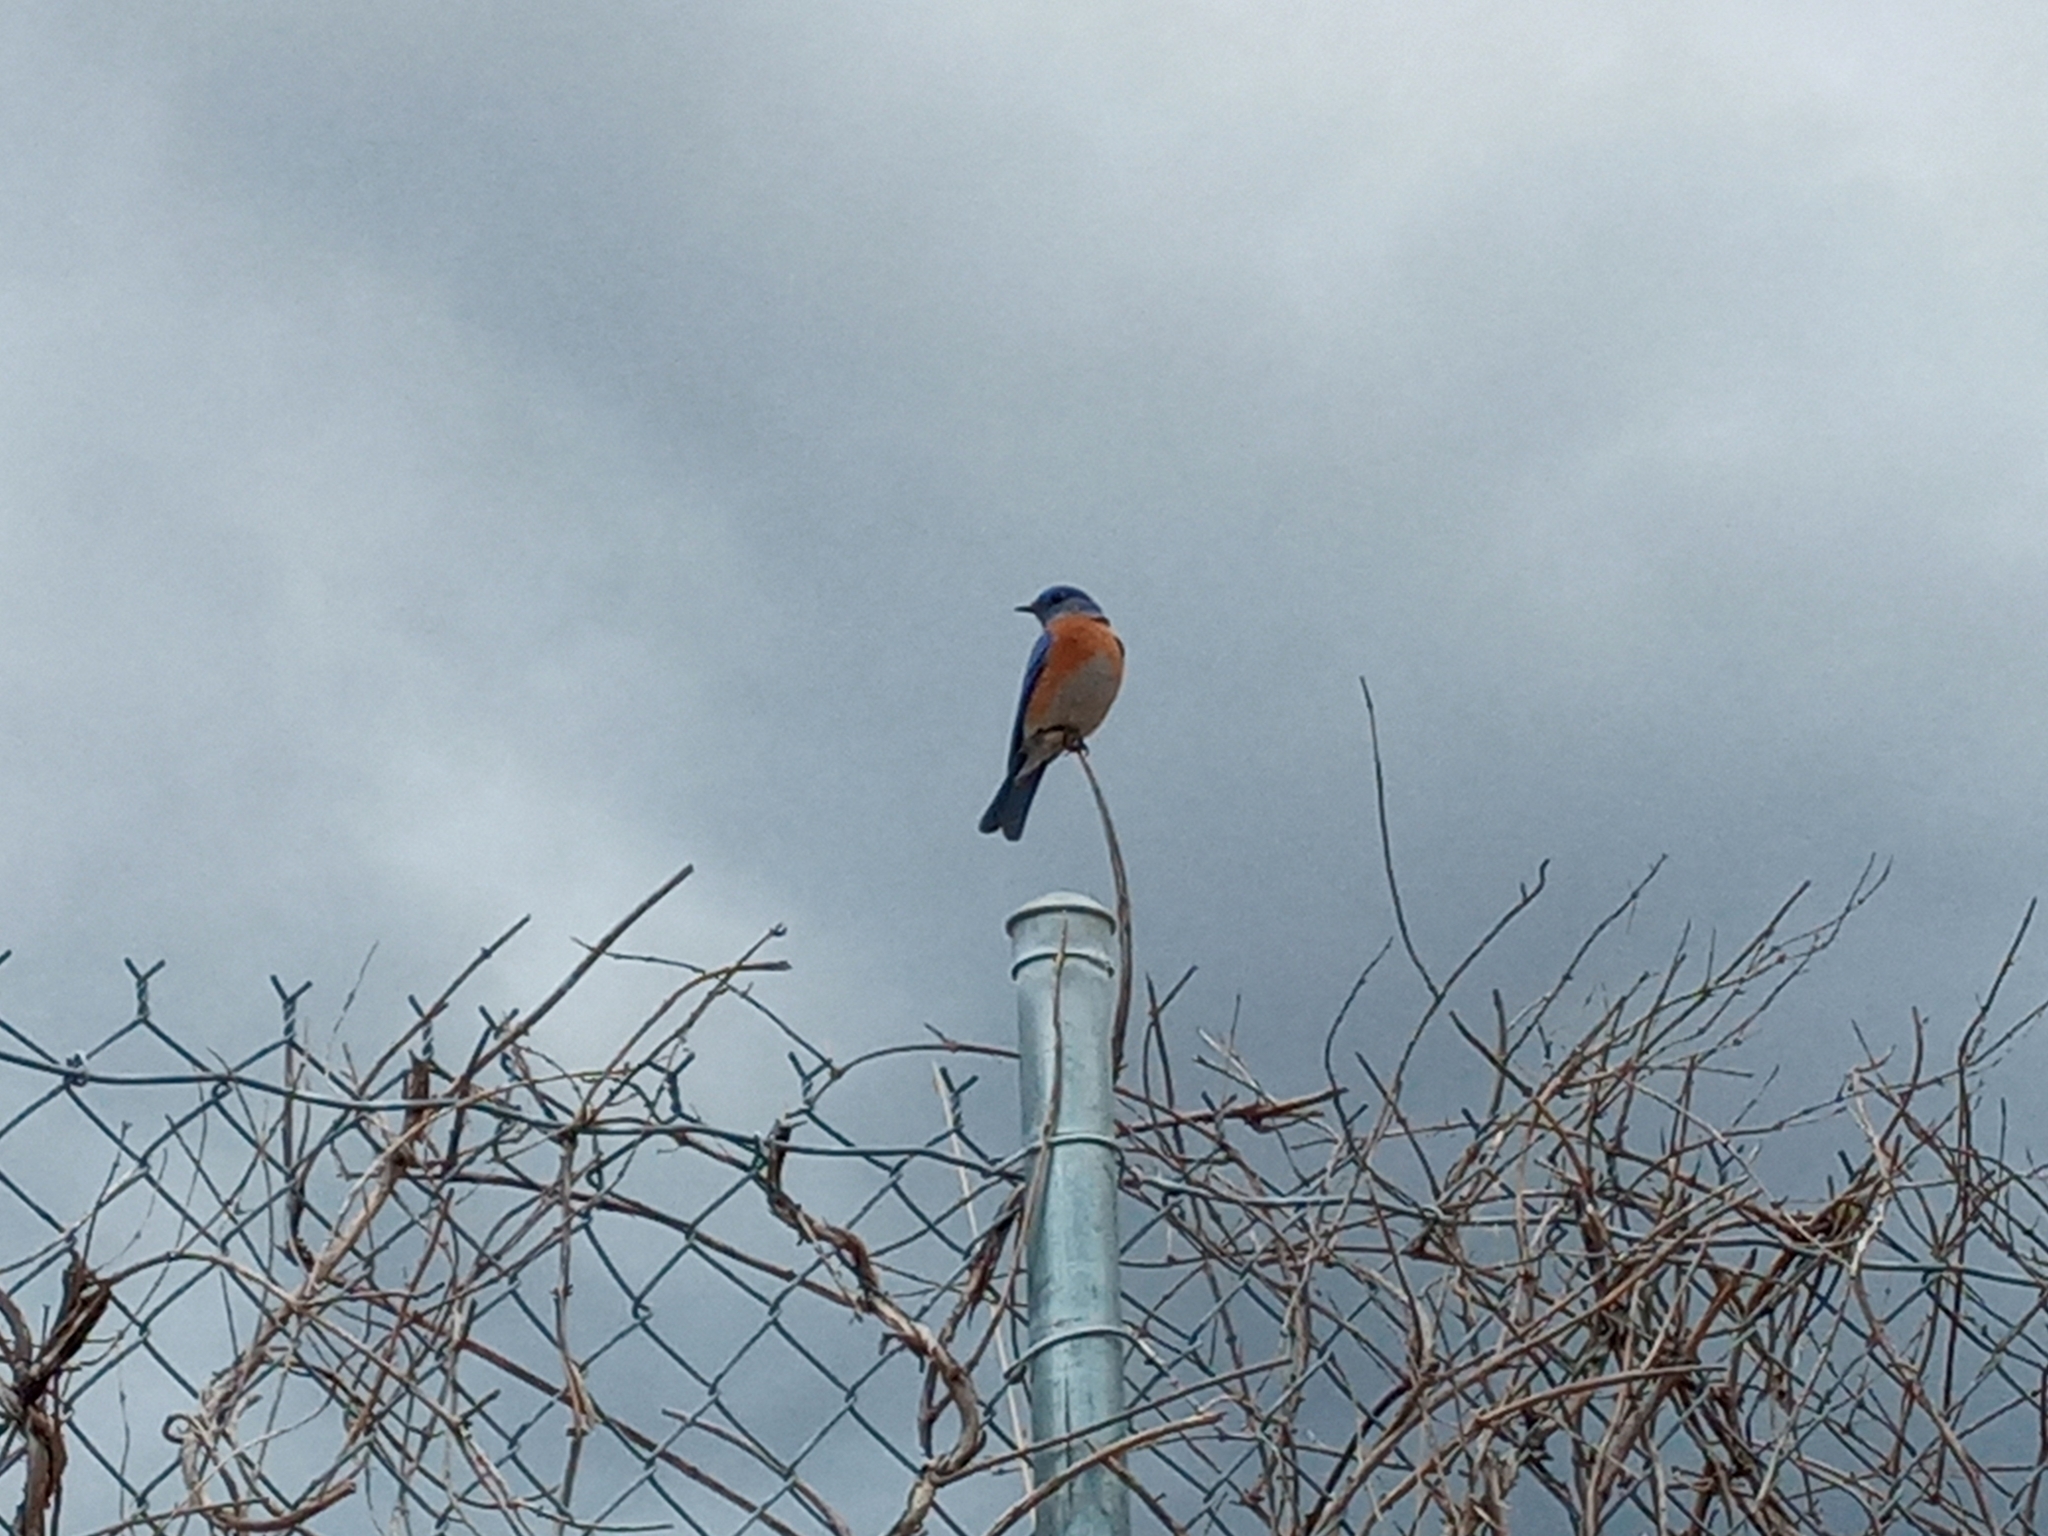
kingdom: Animalia
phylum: Chordata
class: Aves
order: Passeriformes
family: Turdidae
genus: Sialia
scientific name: Sialia mexicana
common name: Western bluebird
